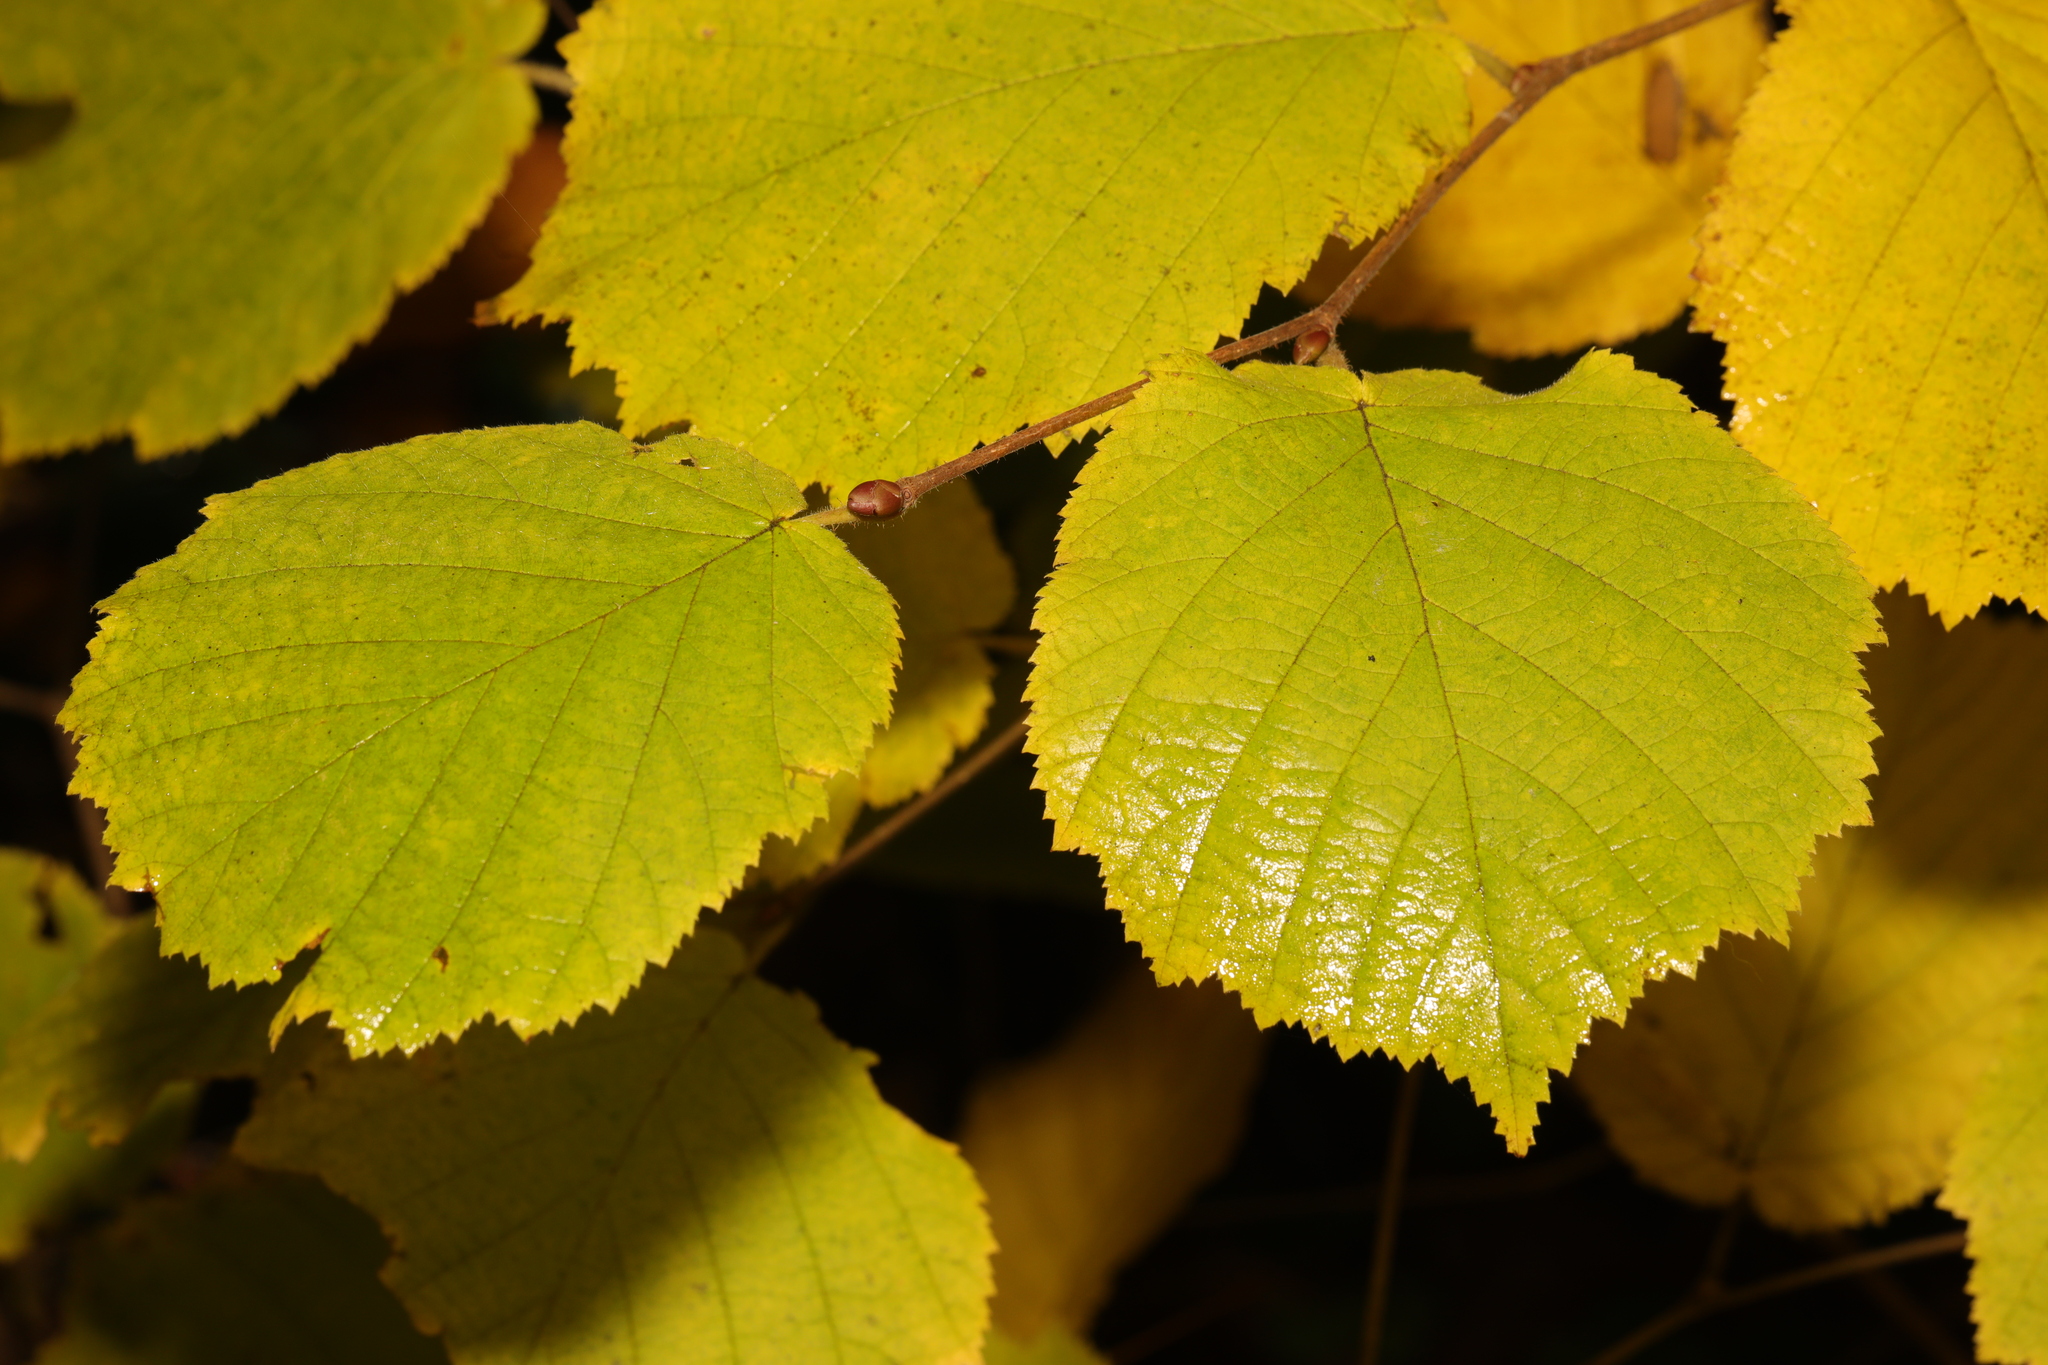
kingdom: Plantae
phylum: Tracheophyta
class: Magnoliopsida
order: Fagales
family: Betulaceae
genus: Corylus
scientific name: Corylus avellana
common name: European hazel
